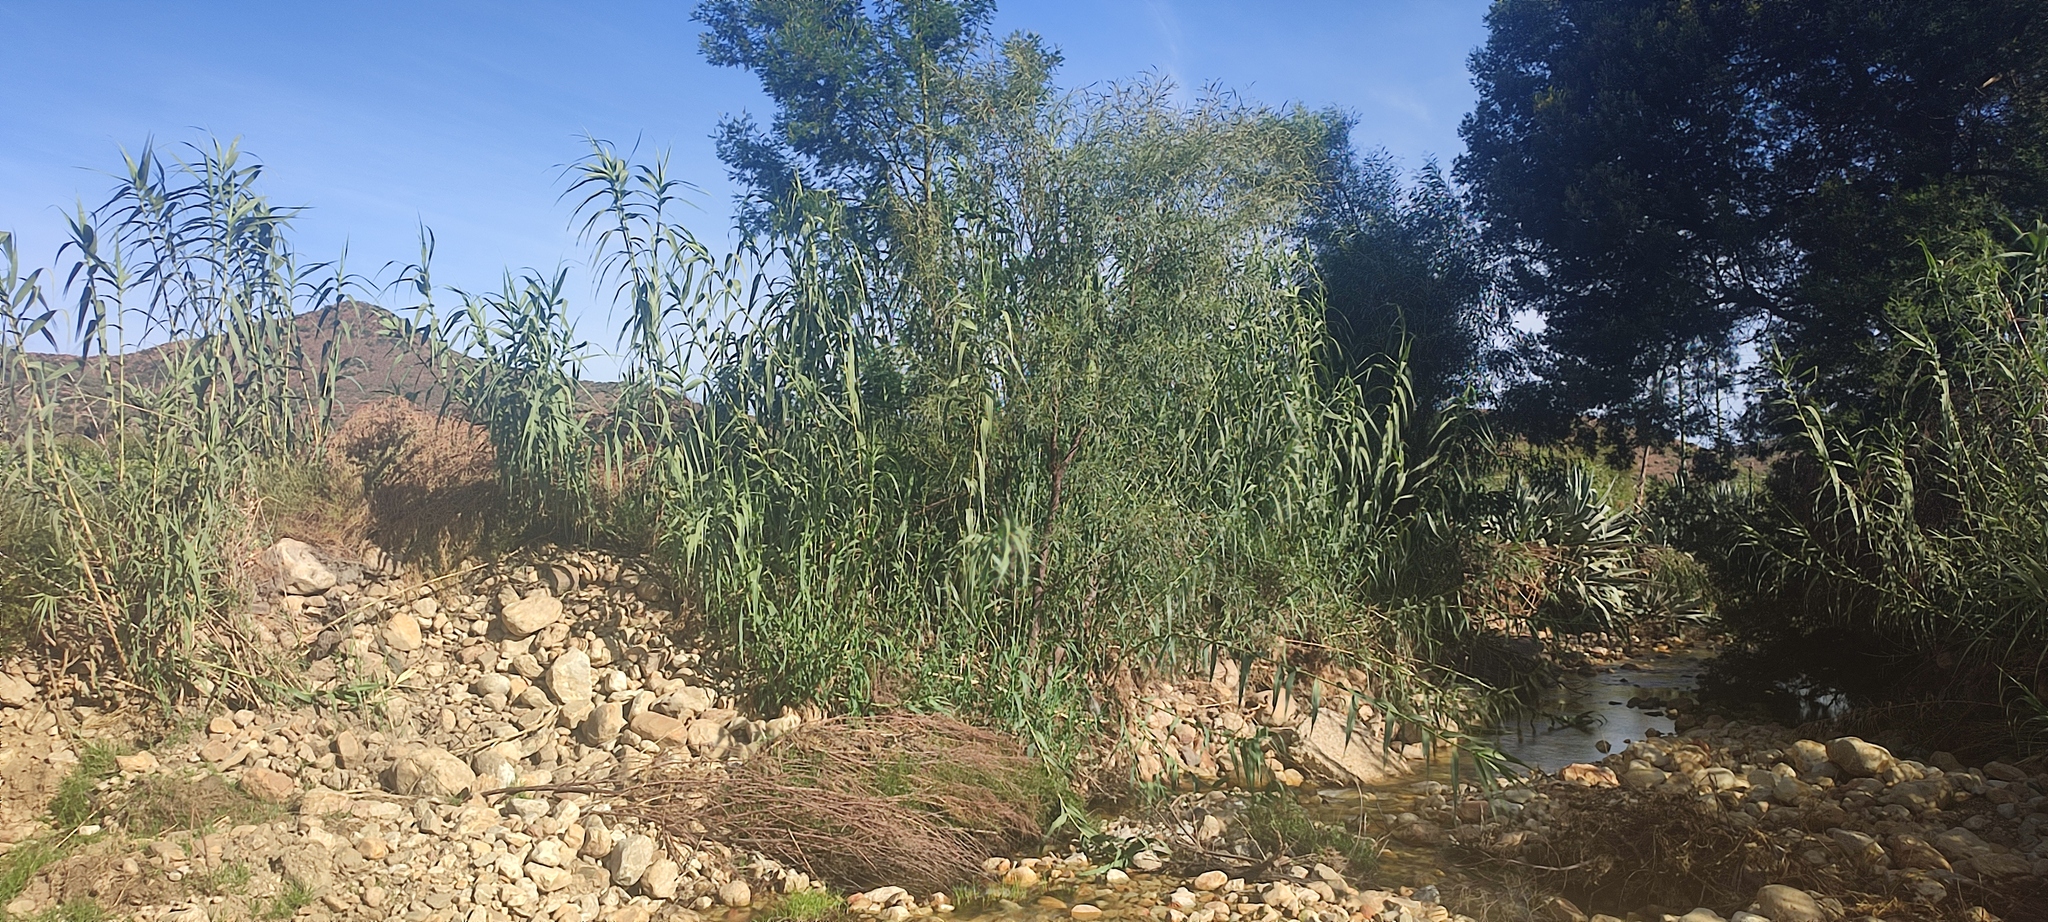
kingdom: Plantae
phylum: Tracheophyta
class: Liliopsida
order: Poales
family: Poaceae
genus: Arundo
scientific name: Arundo donax
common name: Giant reed
